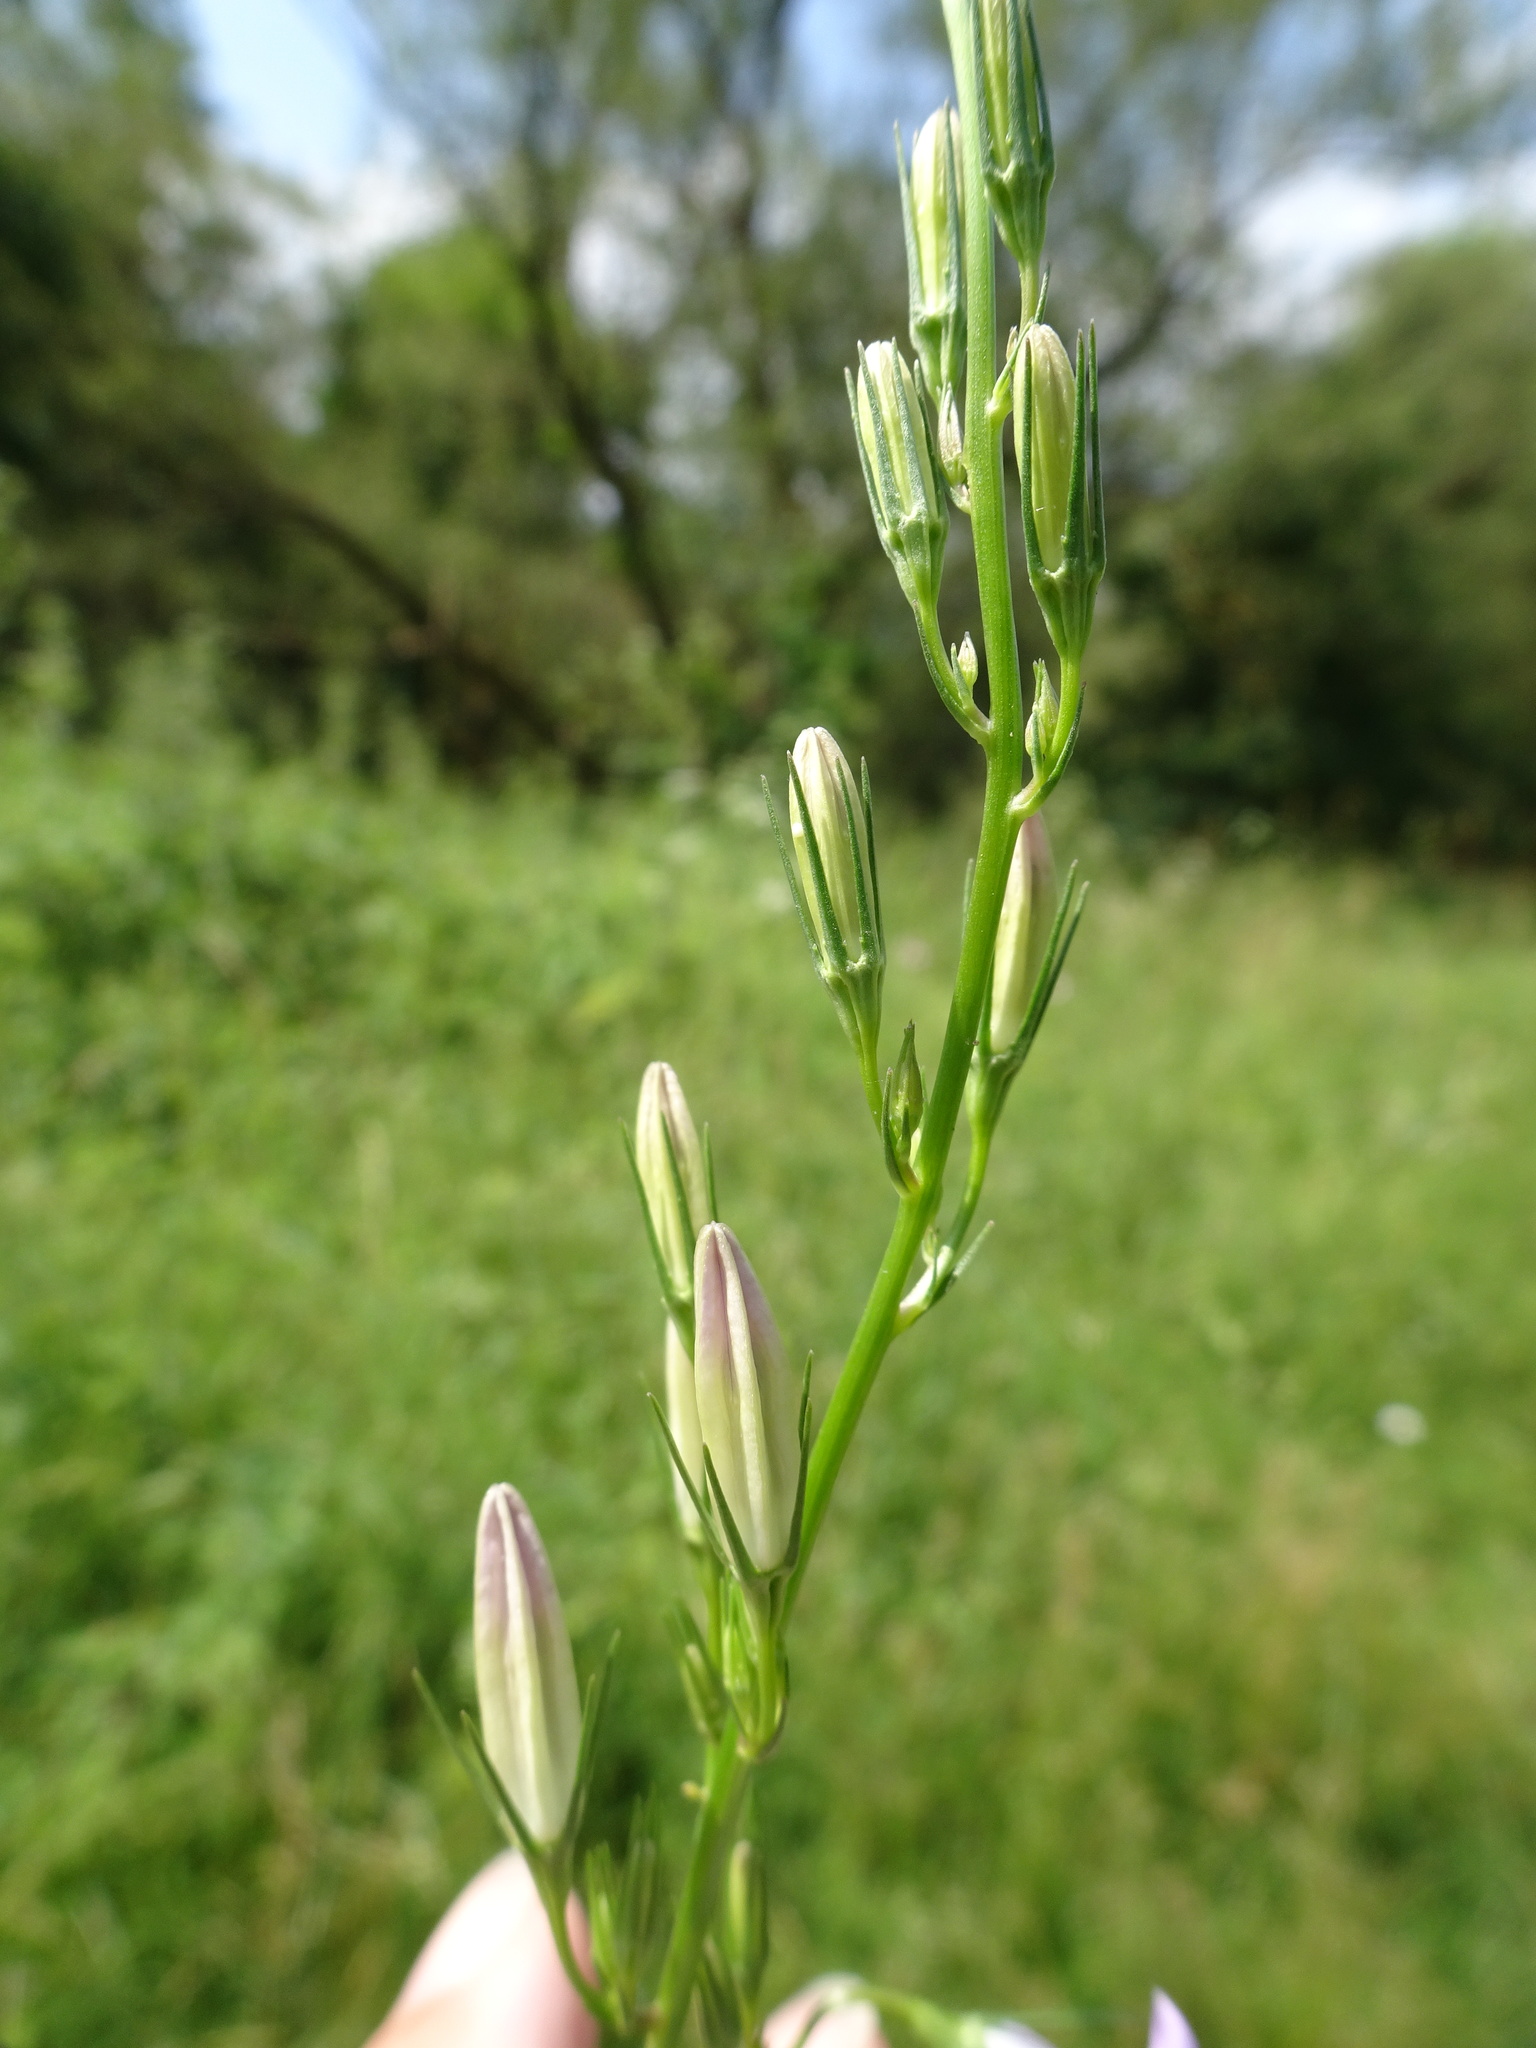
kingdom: Plantae
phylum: Tracheophyta
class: Magnoliopsida
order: Asterales
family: Campanulaceae
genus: Campanula
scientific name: Campanula rapunculus
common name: Rampion bellflower
